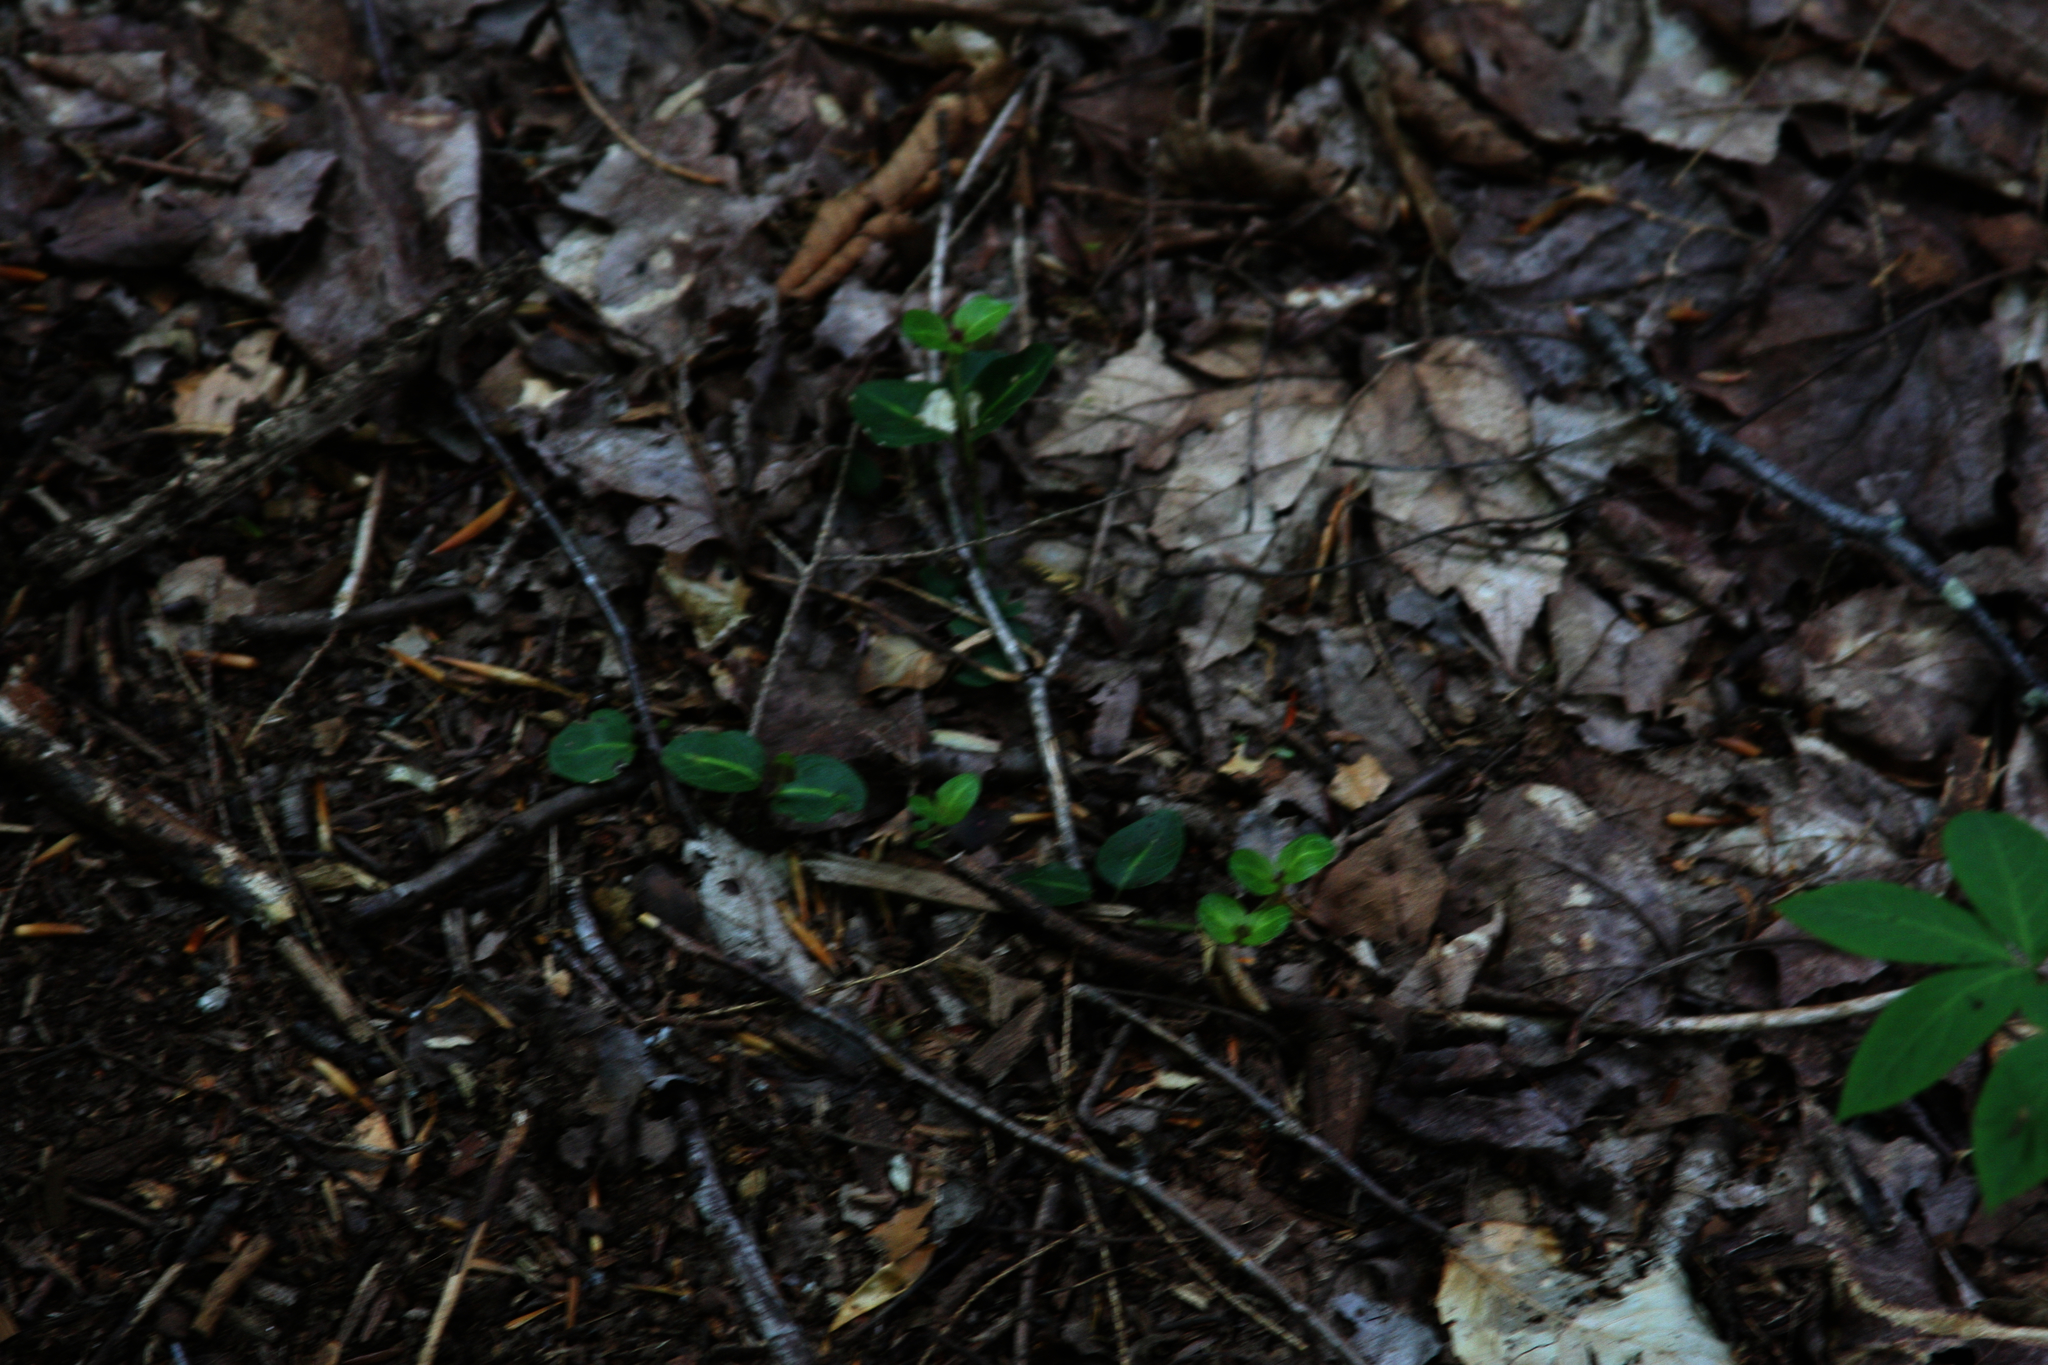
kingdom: Plantae
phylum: Tracheophyta
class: Magnoliopsida
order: Gentianales
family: Rubiaceae
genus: Mitchella
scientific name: Mitchella repens
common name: Partridge-berry
